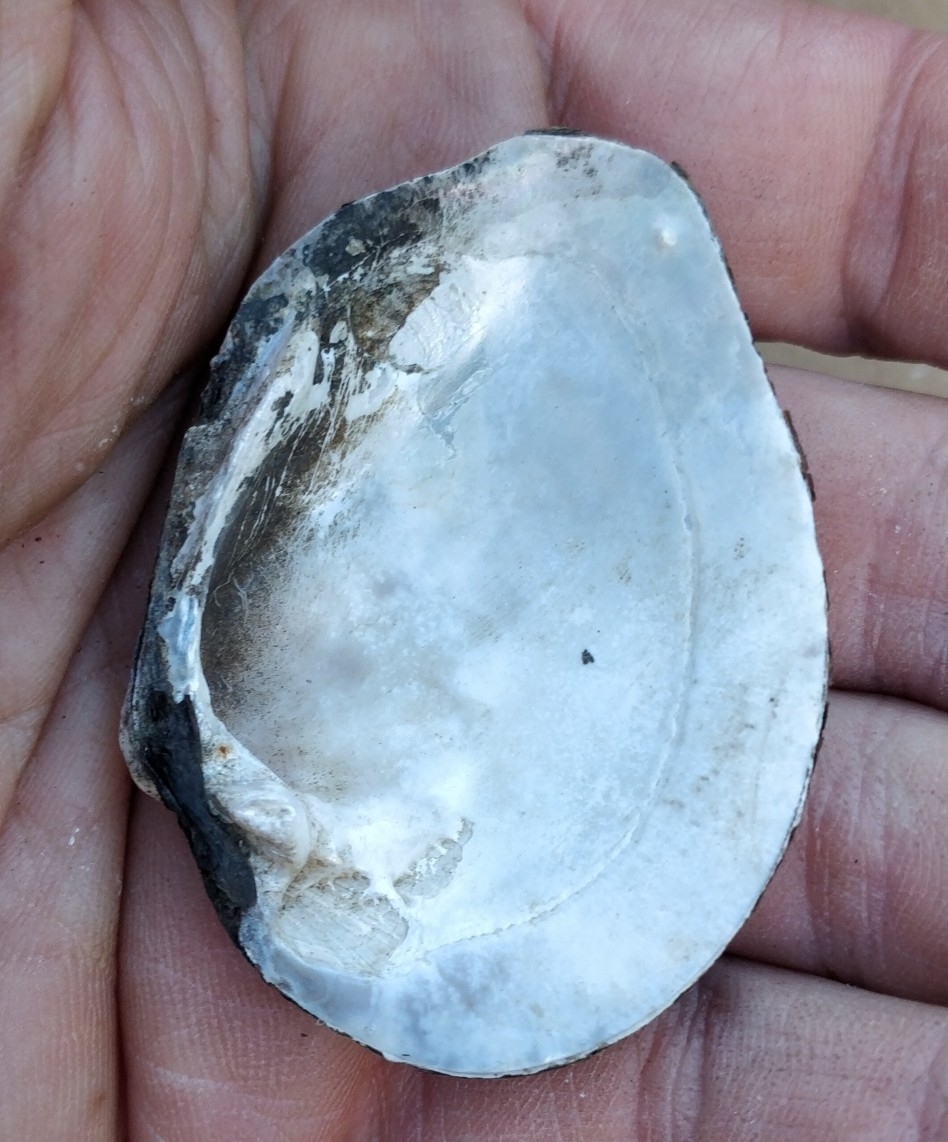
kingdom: Animalia
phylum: Mollusca
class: Bivalvia
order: Unionida
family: Unionidae
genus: Fusconaia
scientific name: Fusconaia flava
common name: Wabash pigtoe
